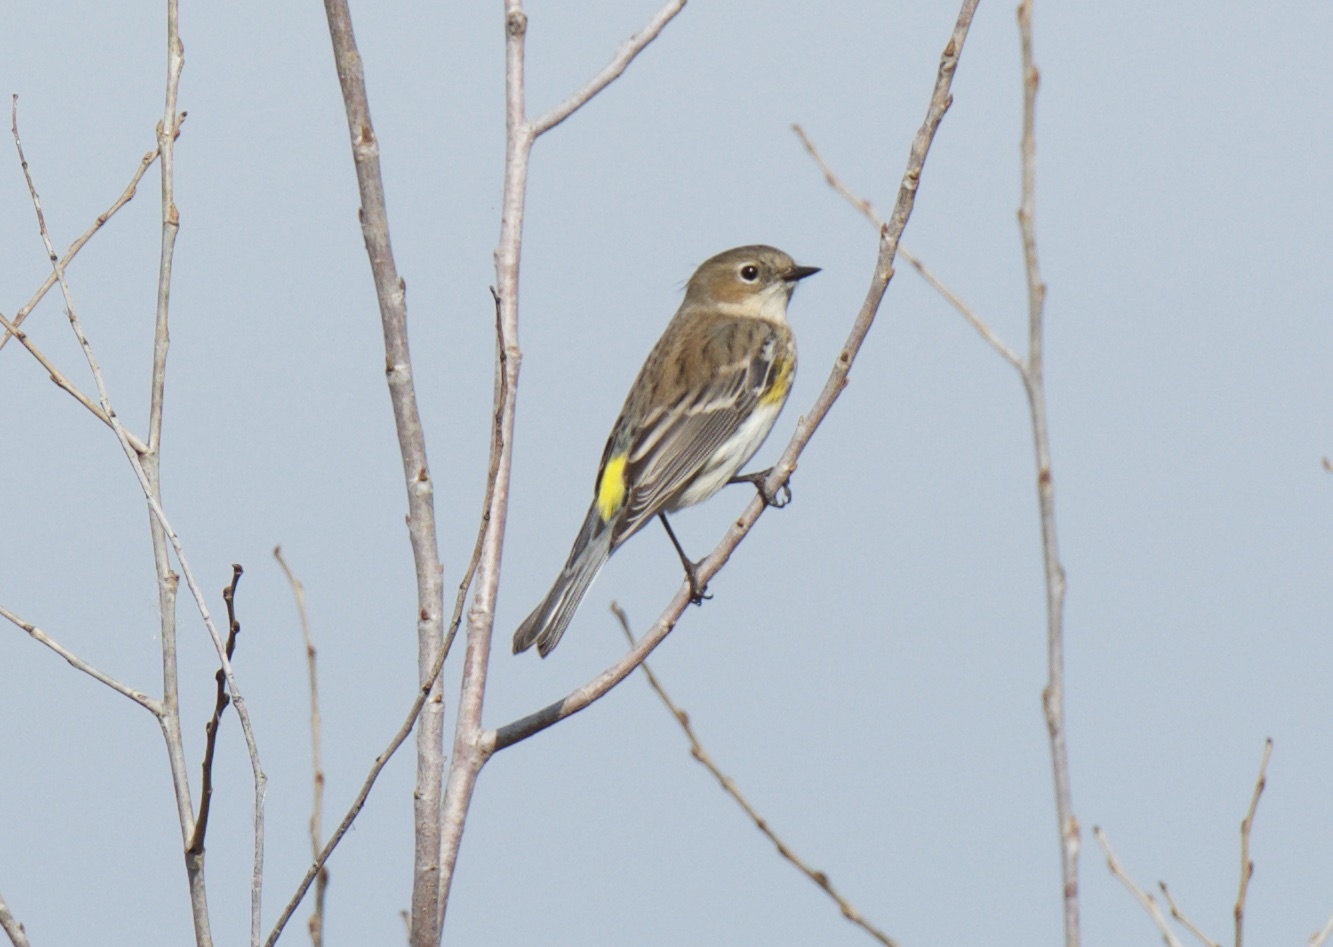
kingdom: Animalia
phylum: Chordata
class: Aves
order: Passeriformes
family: Parulidae
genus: Setophaga
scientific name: Setophaga coronata
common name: Myrtle warbler
